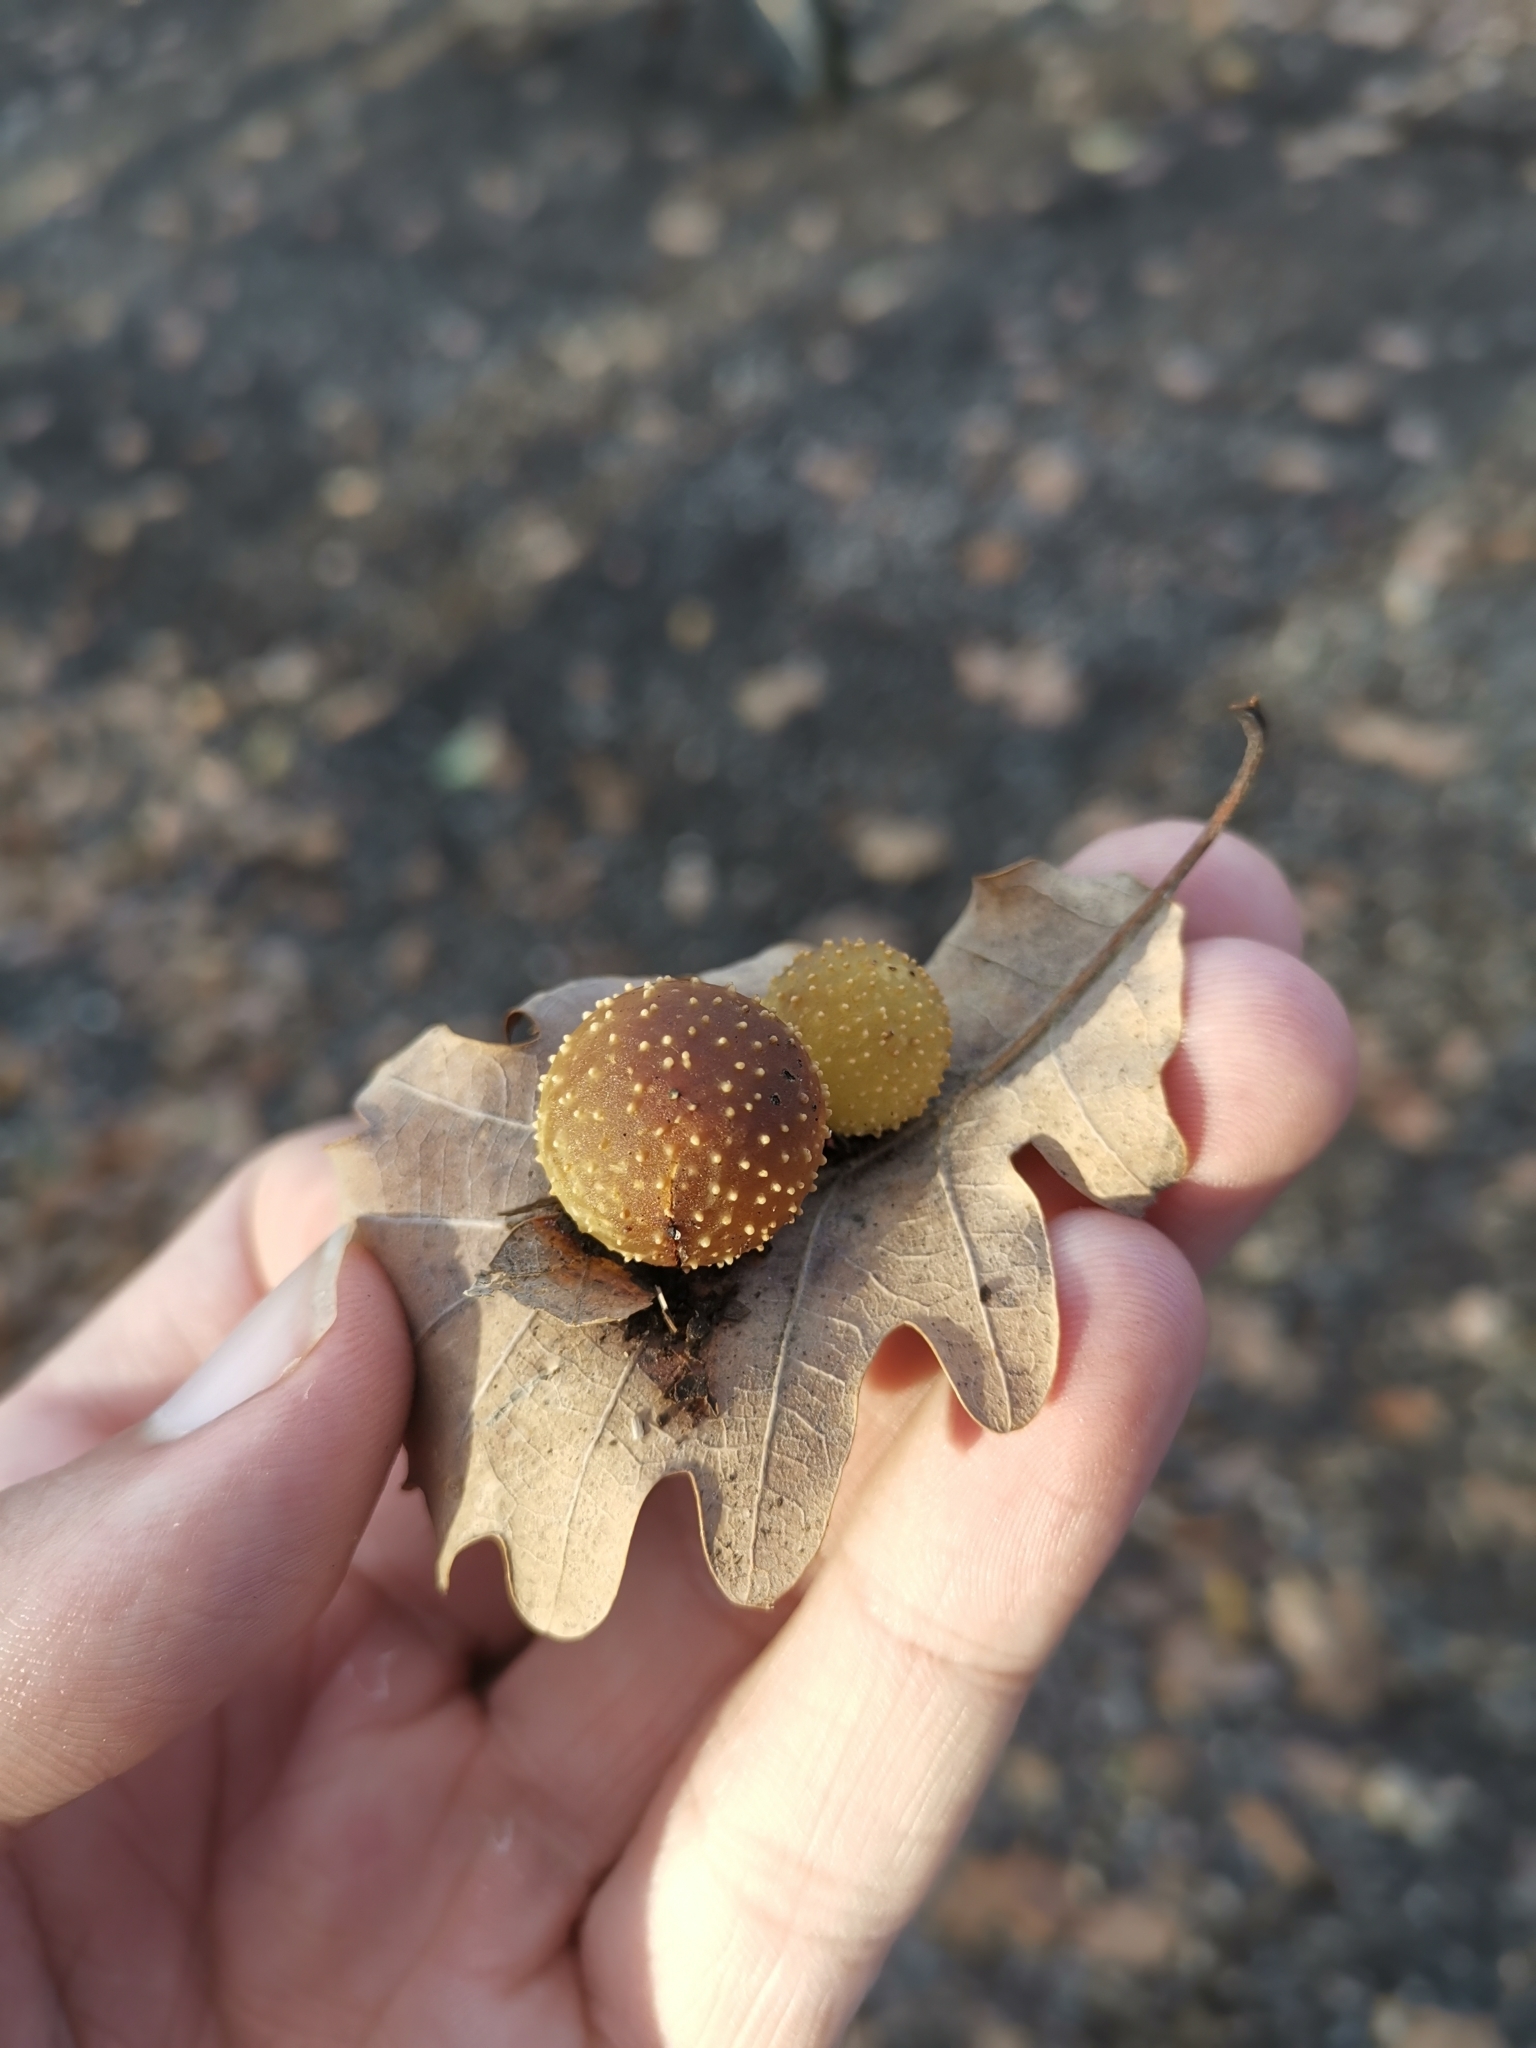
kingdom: Animalia
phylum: Arthropoda
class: Insecta
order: Hymenoptera
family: Cynipidae
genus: Cynips
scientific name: Cynips quercusfolii
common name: Cherry gall
